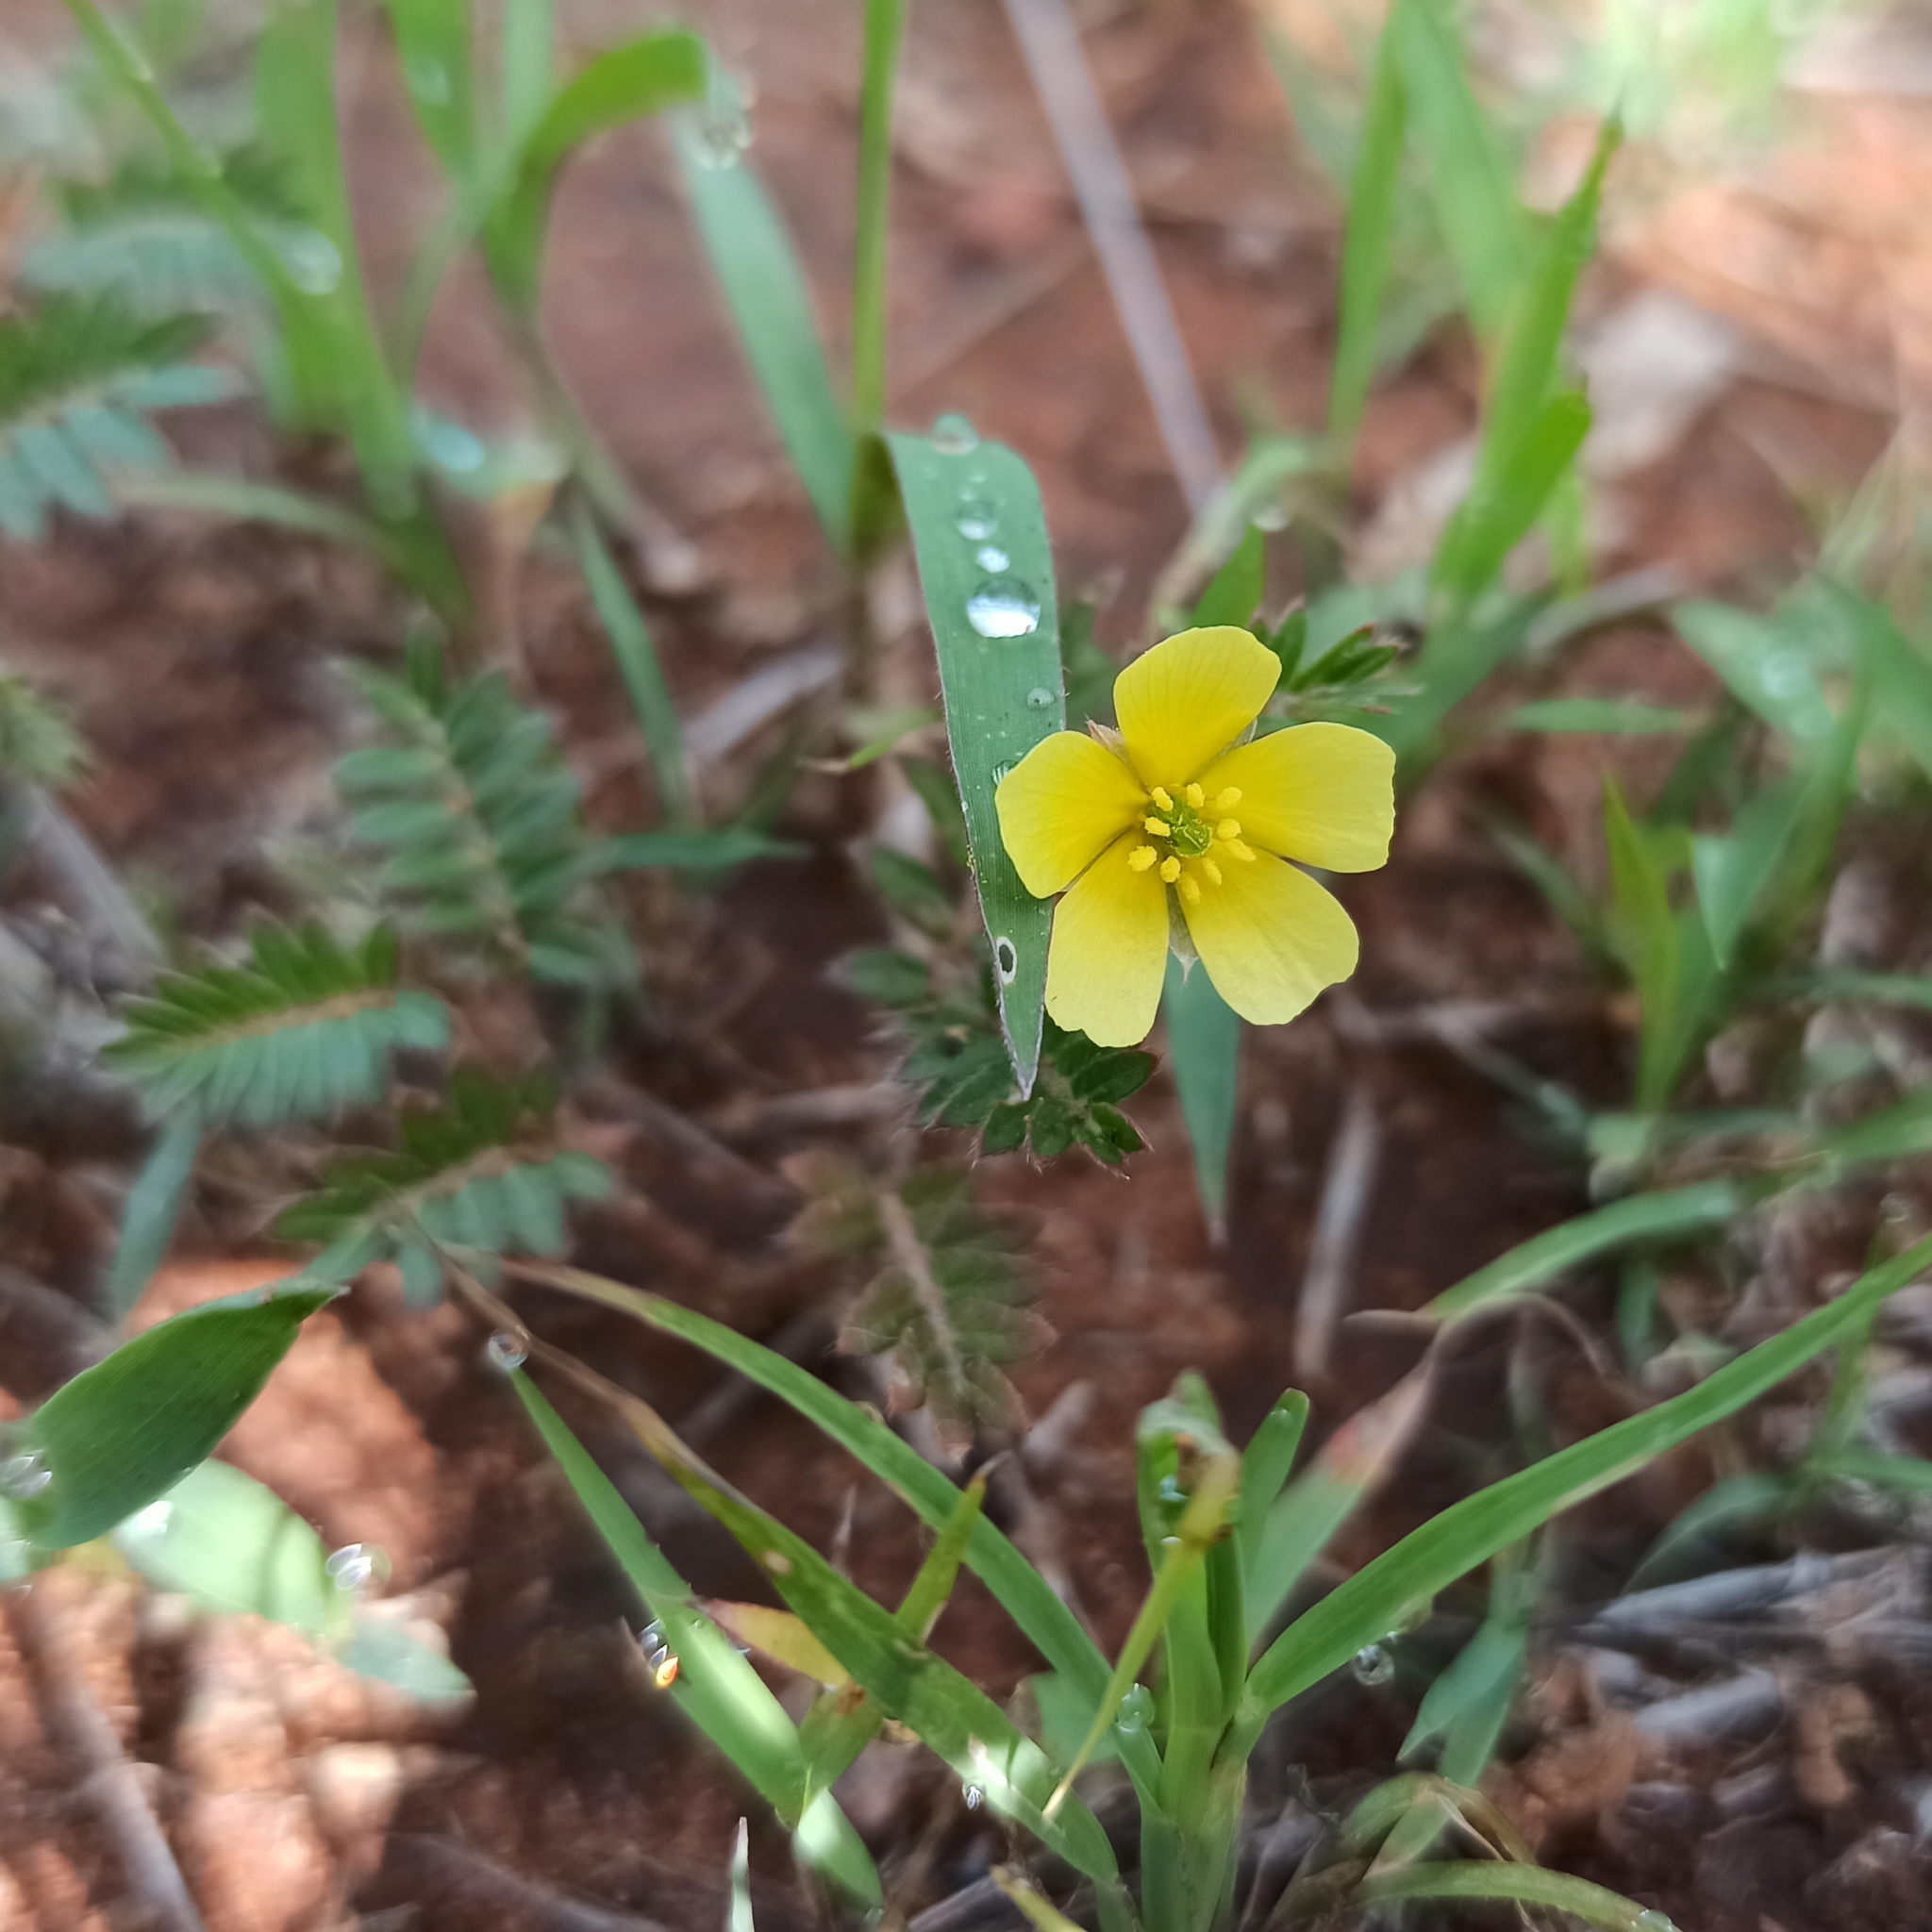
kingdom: Plantae
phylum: Tracheophyta
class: Magnoliopsida
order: Zygophyllales
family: Zygophyllaceae
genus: Tribulus
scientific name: Tribulus terrestris
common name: Puncturevine
